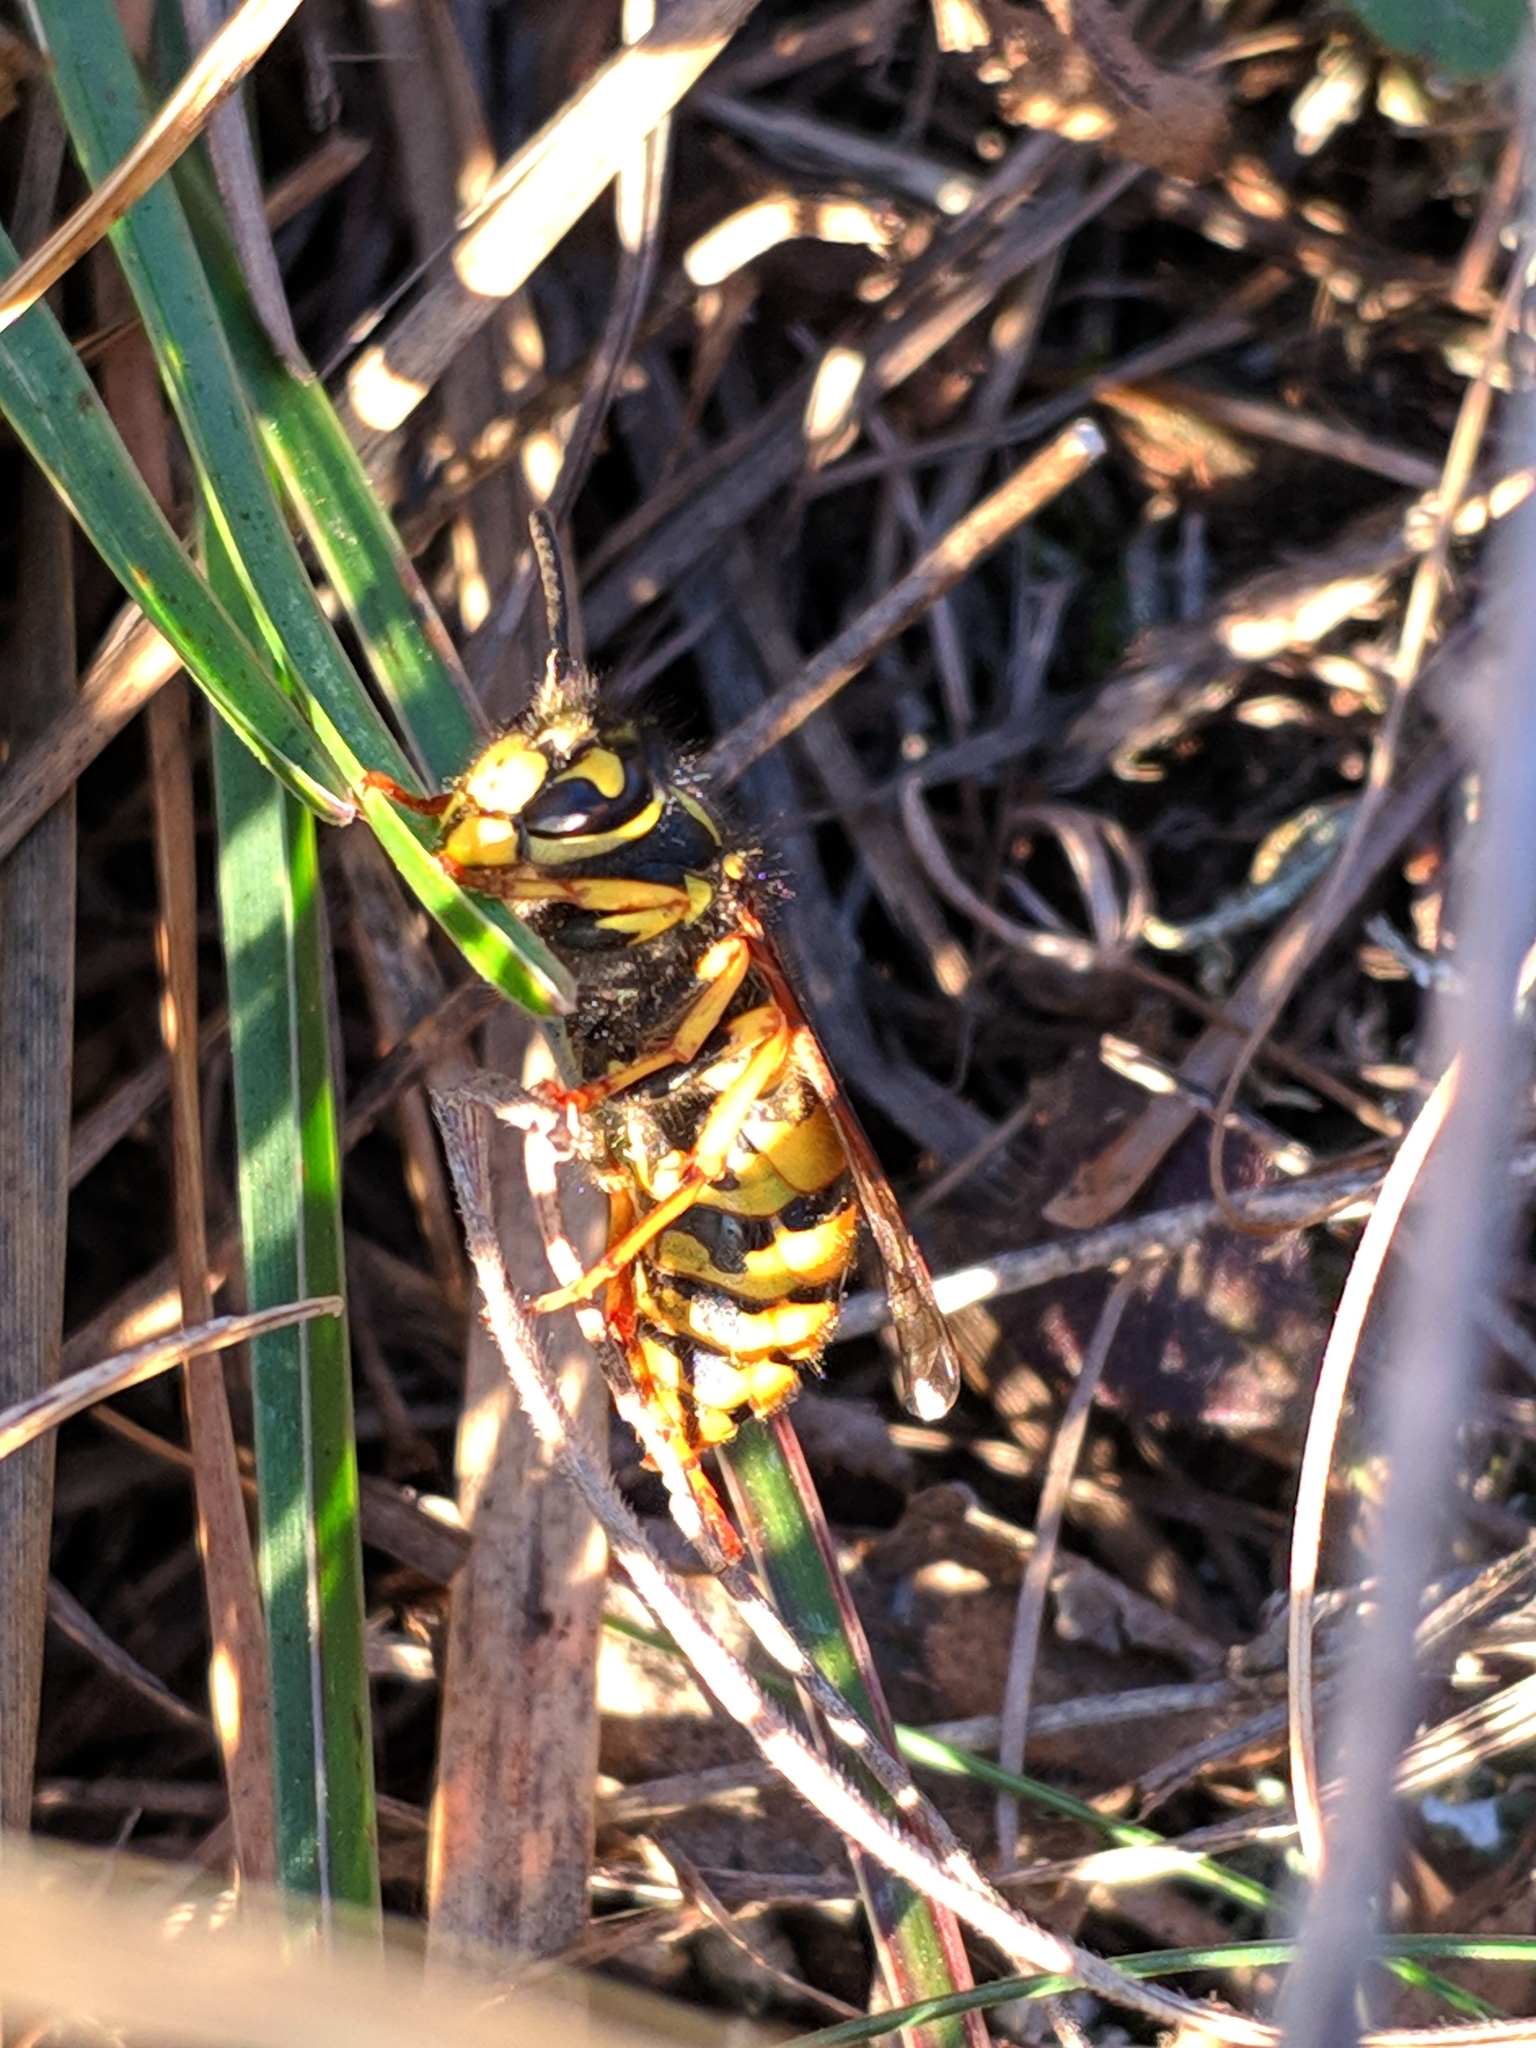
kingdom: Animalia
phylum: Arthropoda
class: Insecta
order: Hymenoptera
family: Vespidae
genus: Vespula
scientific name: Vespula germanica
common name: German wasp
